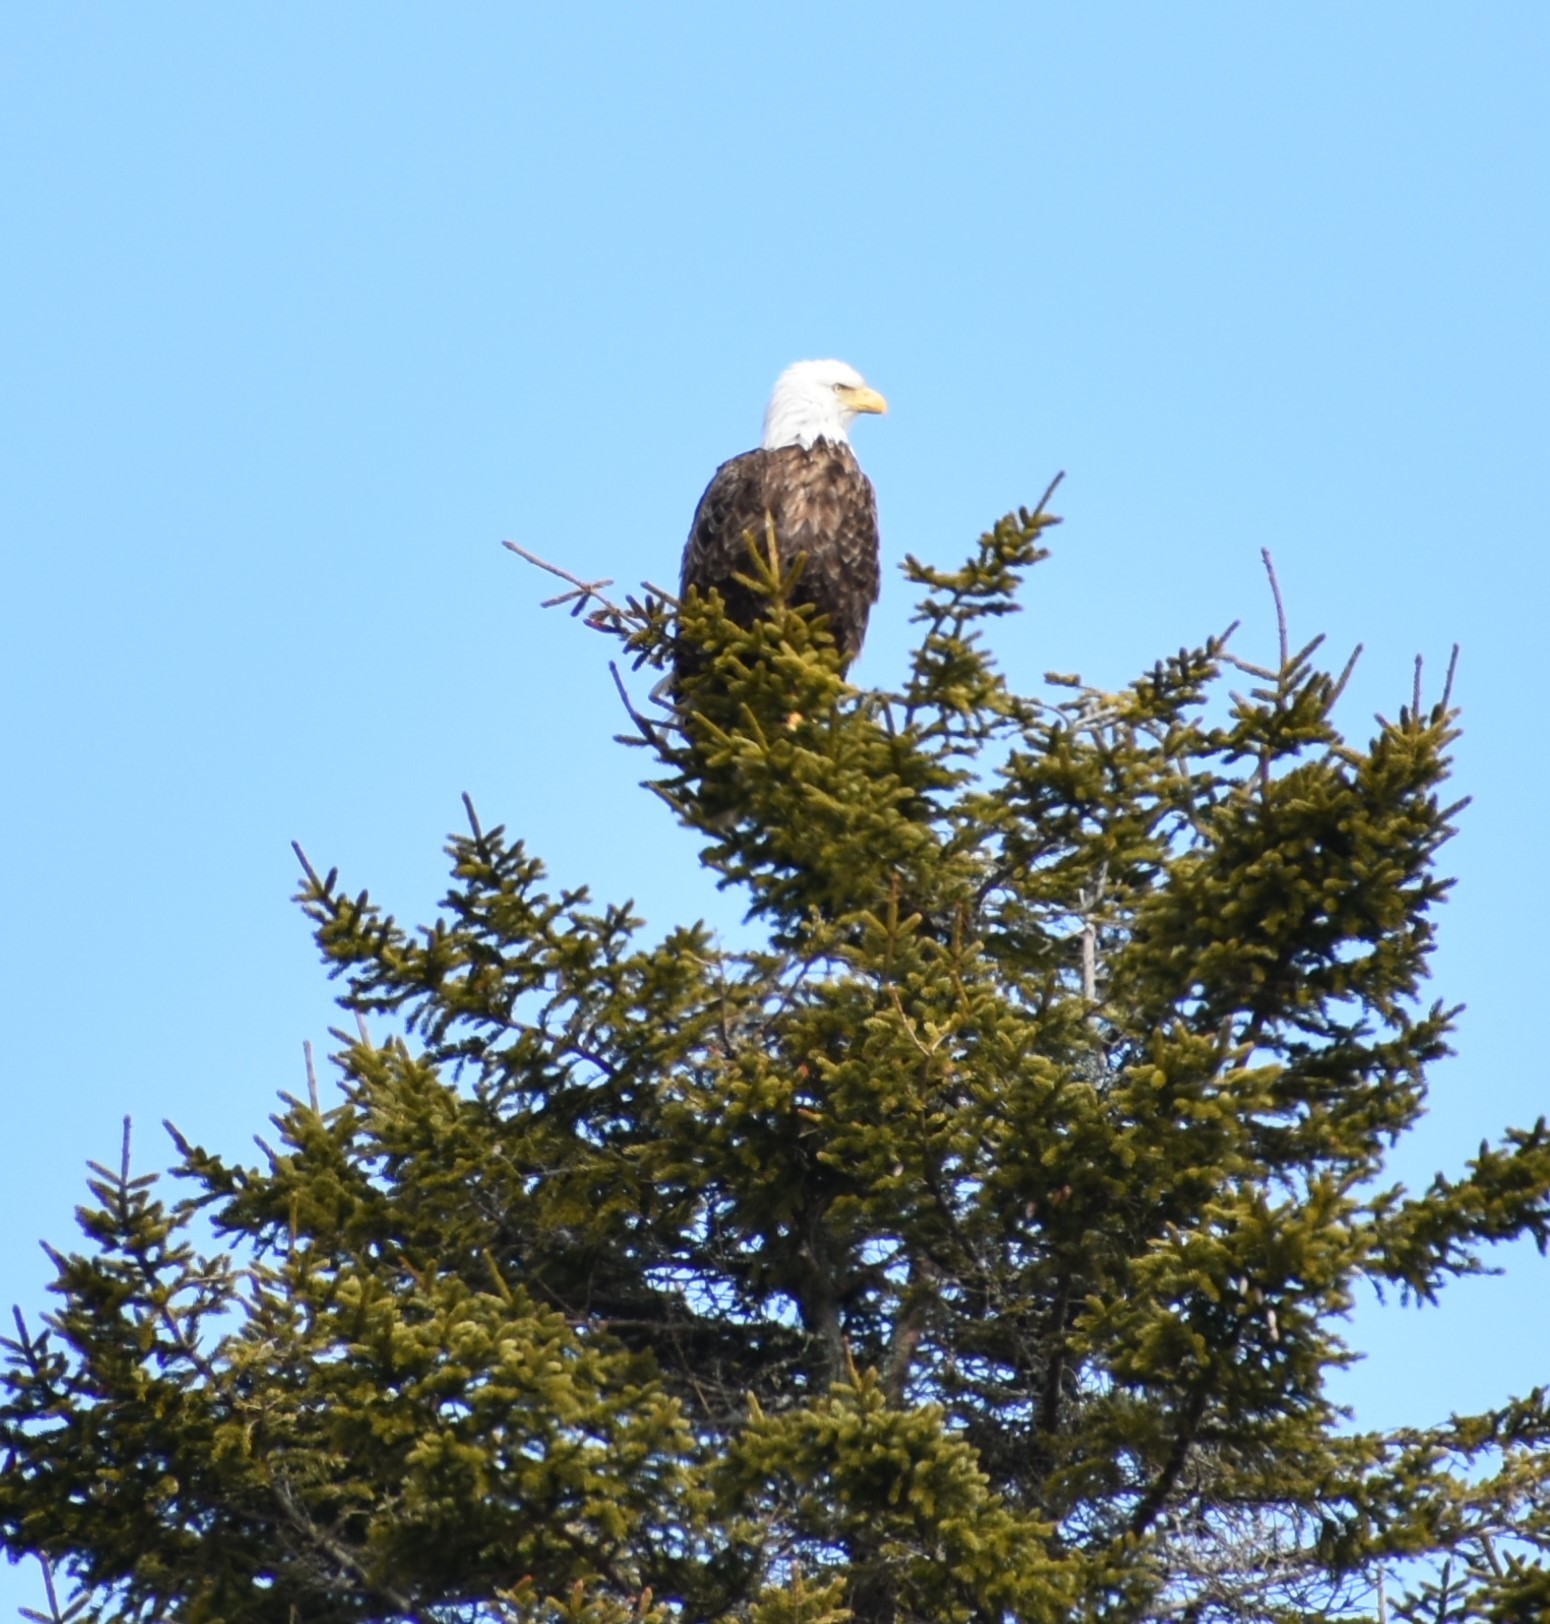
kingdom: Animalia
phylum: Chordata
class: Aves
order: Accipitriformes
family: Accipitridae
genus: Haliaeetus
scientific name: Haliaeetus leucocephalus
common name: Bald eagle
